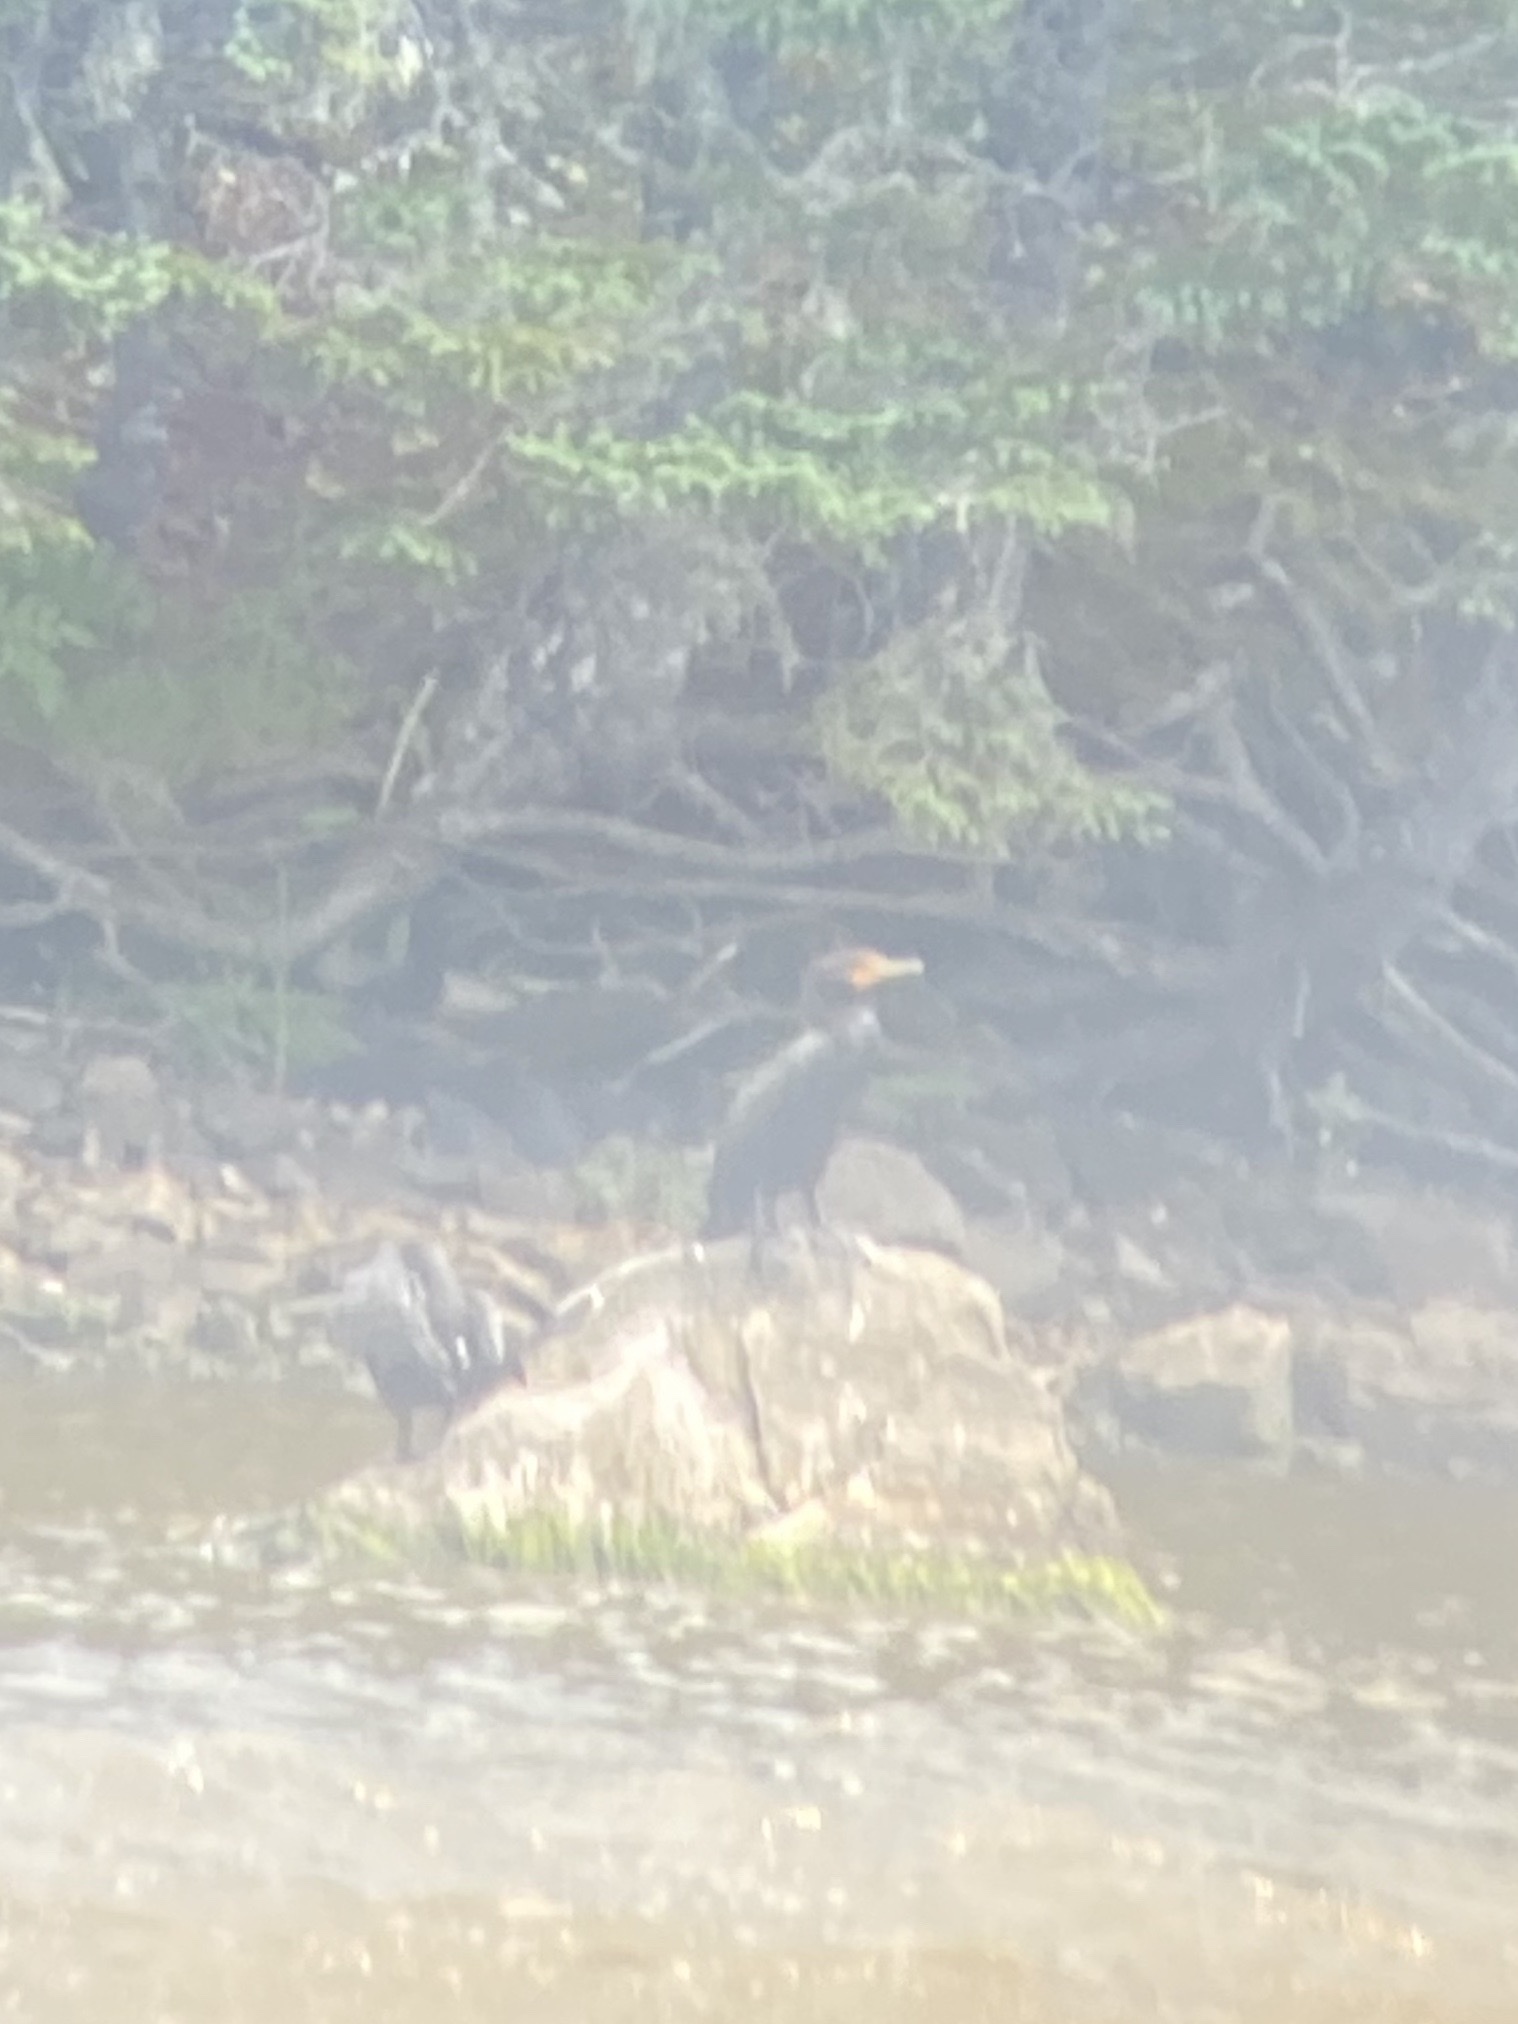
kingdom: Animalia
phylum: Chordata
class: Aves
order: Suliformes
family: Phalacrocoracidae
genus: Phalacrocorax
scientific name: Phalacrocorax auritus
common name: Double-crested cormorant
